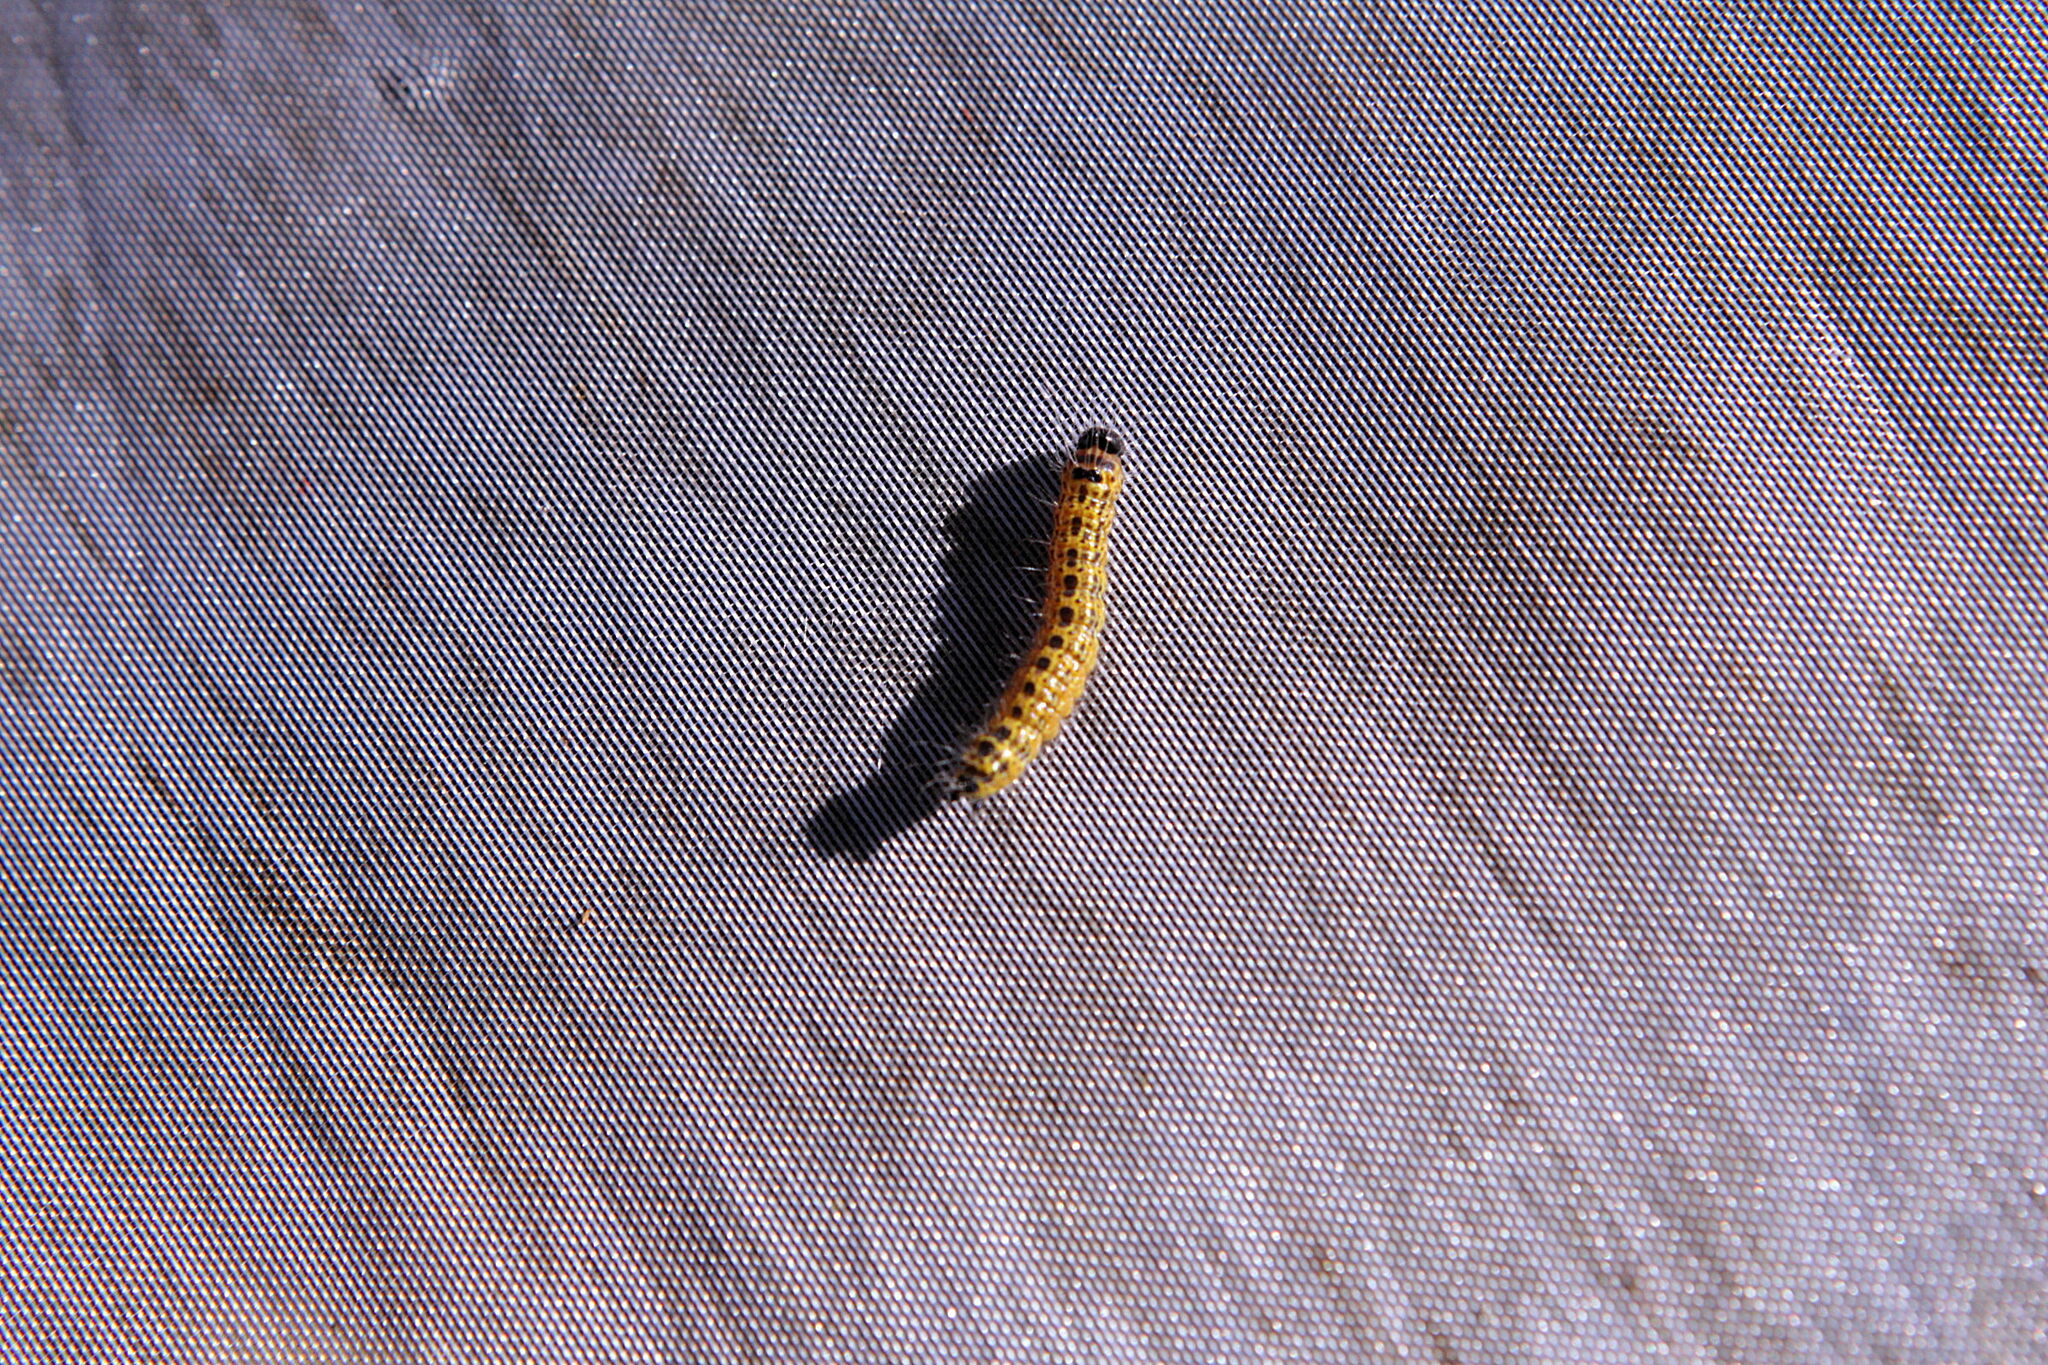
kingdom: Animalia
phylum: Arthropoda
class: Insecta
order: Lepidoptera
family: Notodontidae
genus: Phalera
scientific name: Phalera bucephala
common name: Buff-tip
